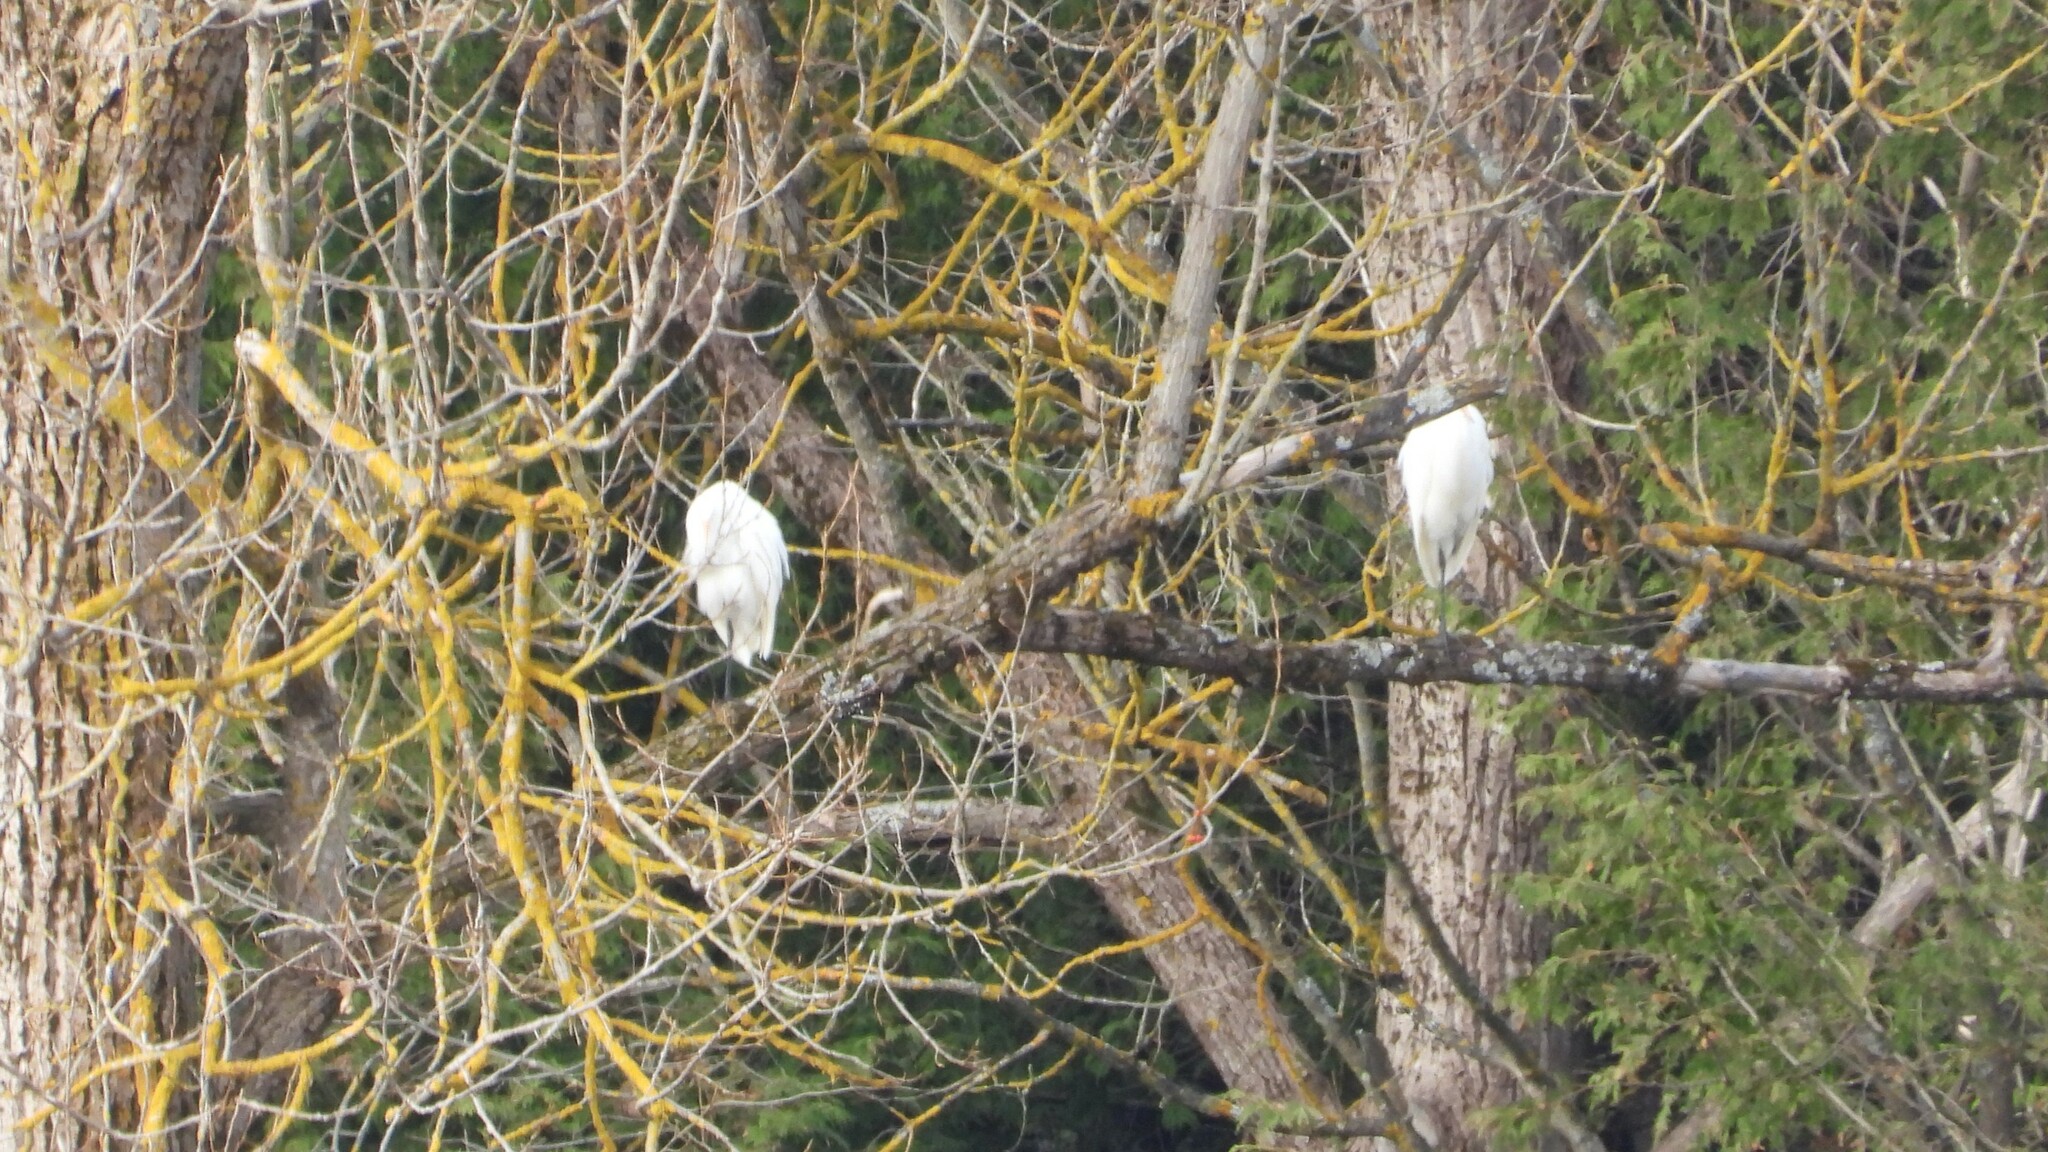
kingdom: Animalia
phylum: Chordata
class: Aves
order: Pelecaniformes
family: Ardeidae
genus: Ardea
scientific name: Ardea alba
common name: Great egret
